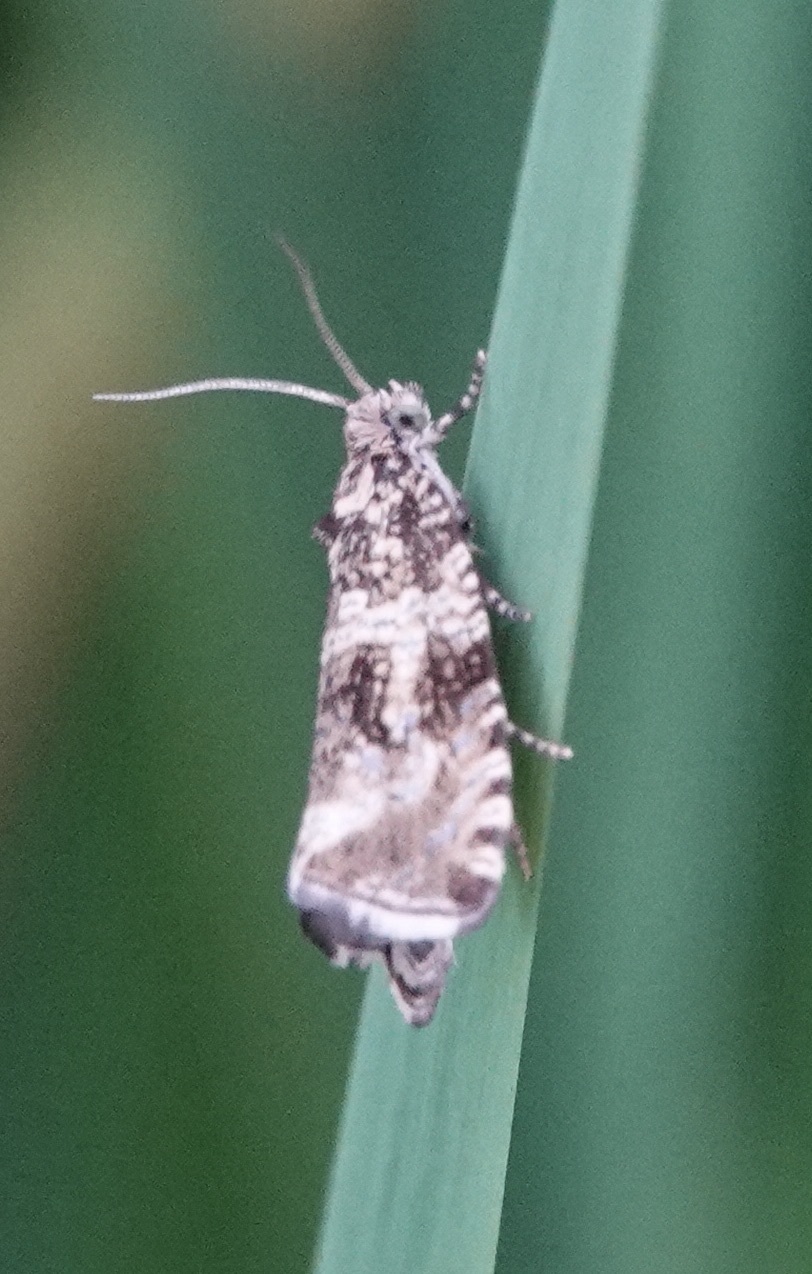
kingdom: Animalia
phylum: Arthropoda
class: Insecta
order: Lepidoptera
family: Tortricidae
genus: Syricoris
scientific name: Syricoris lacunana
